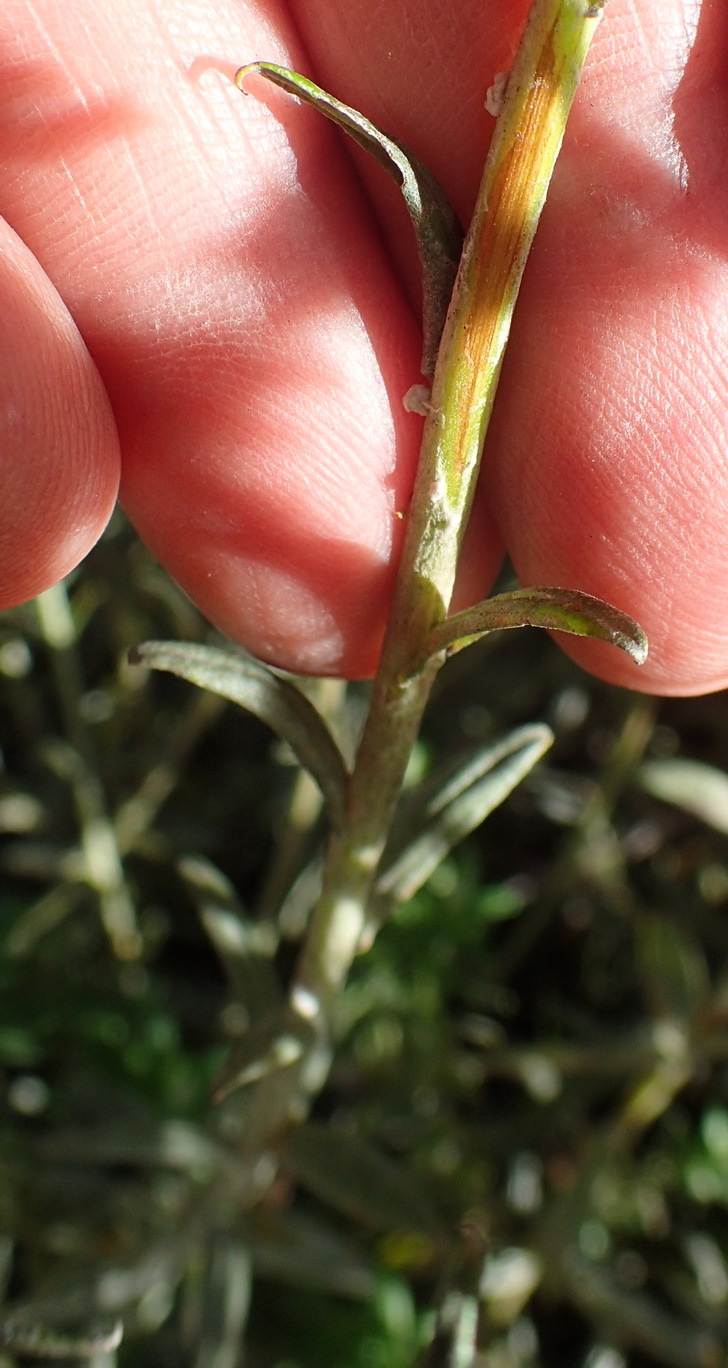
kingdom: Plantae
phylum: Tracheophyta
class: Magnoliopsida
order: Asterales
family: Asteraceae
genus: Helichrysum
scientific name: Helichrysum cymosum
